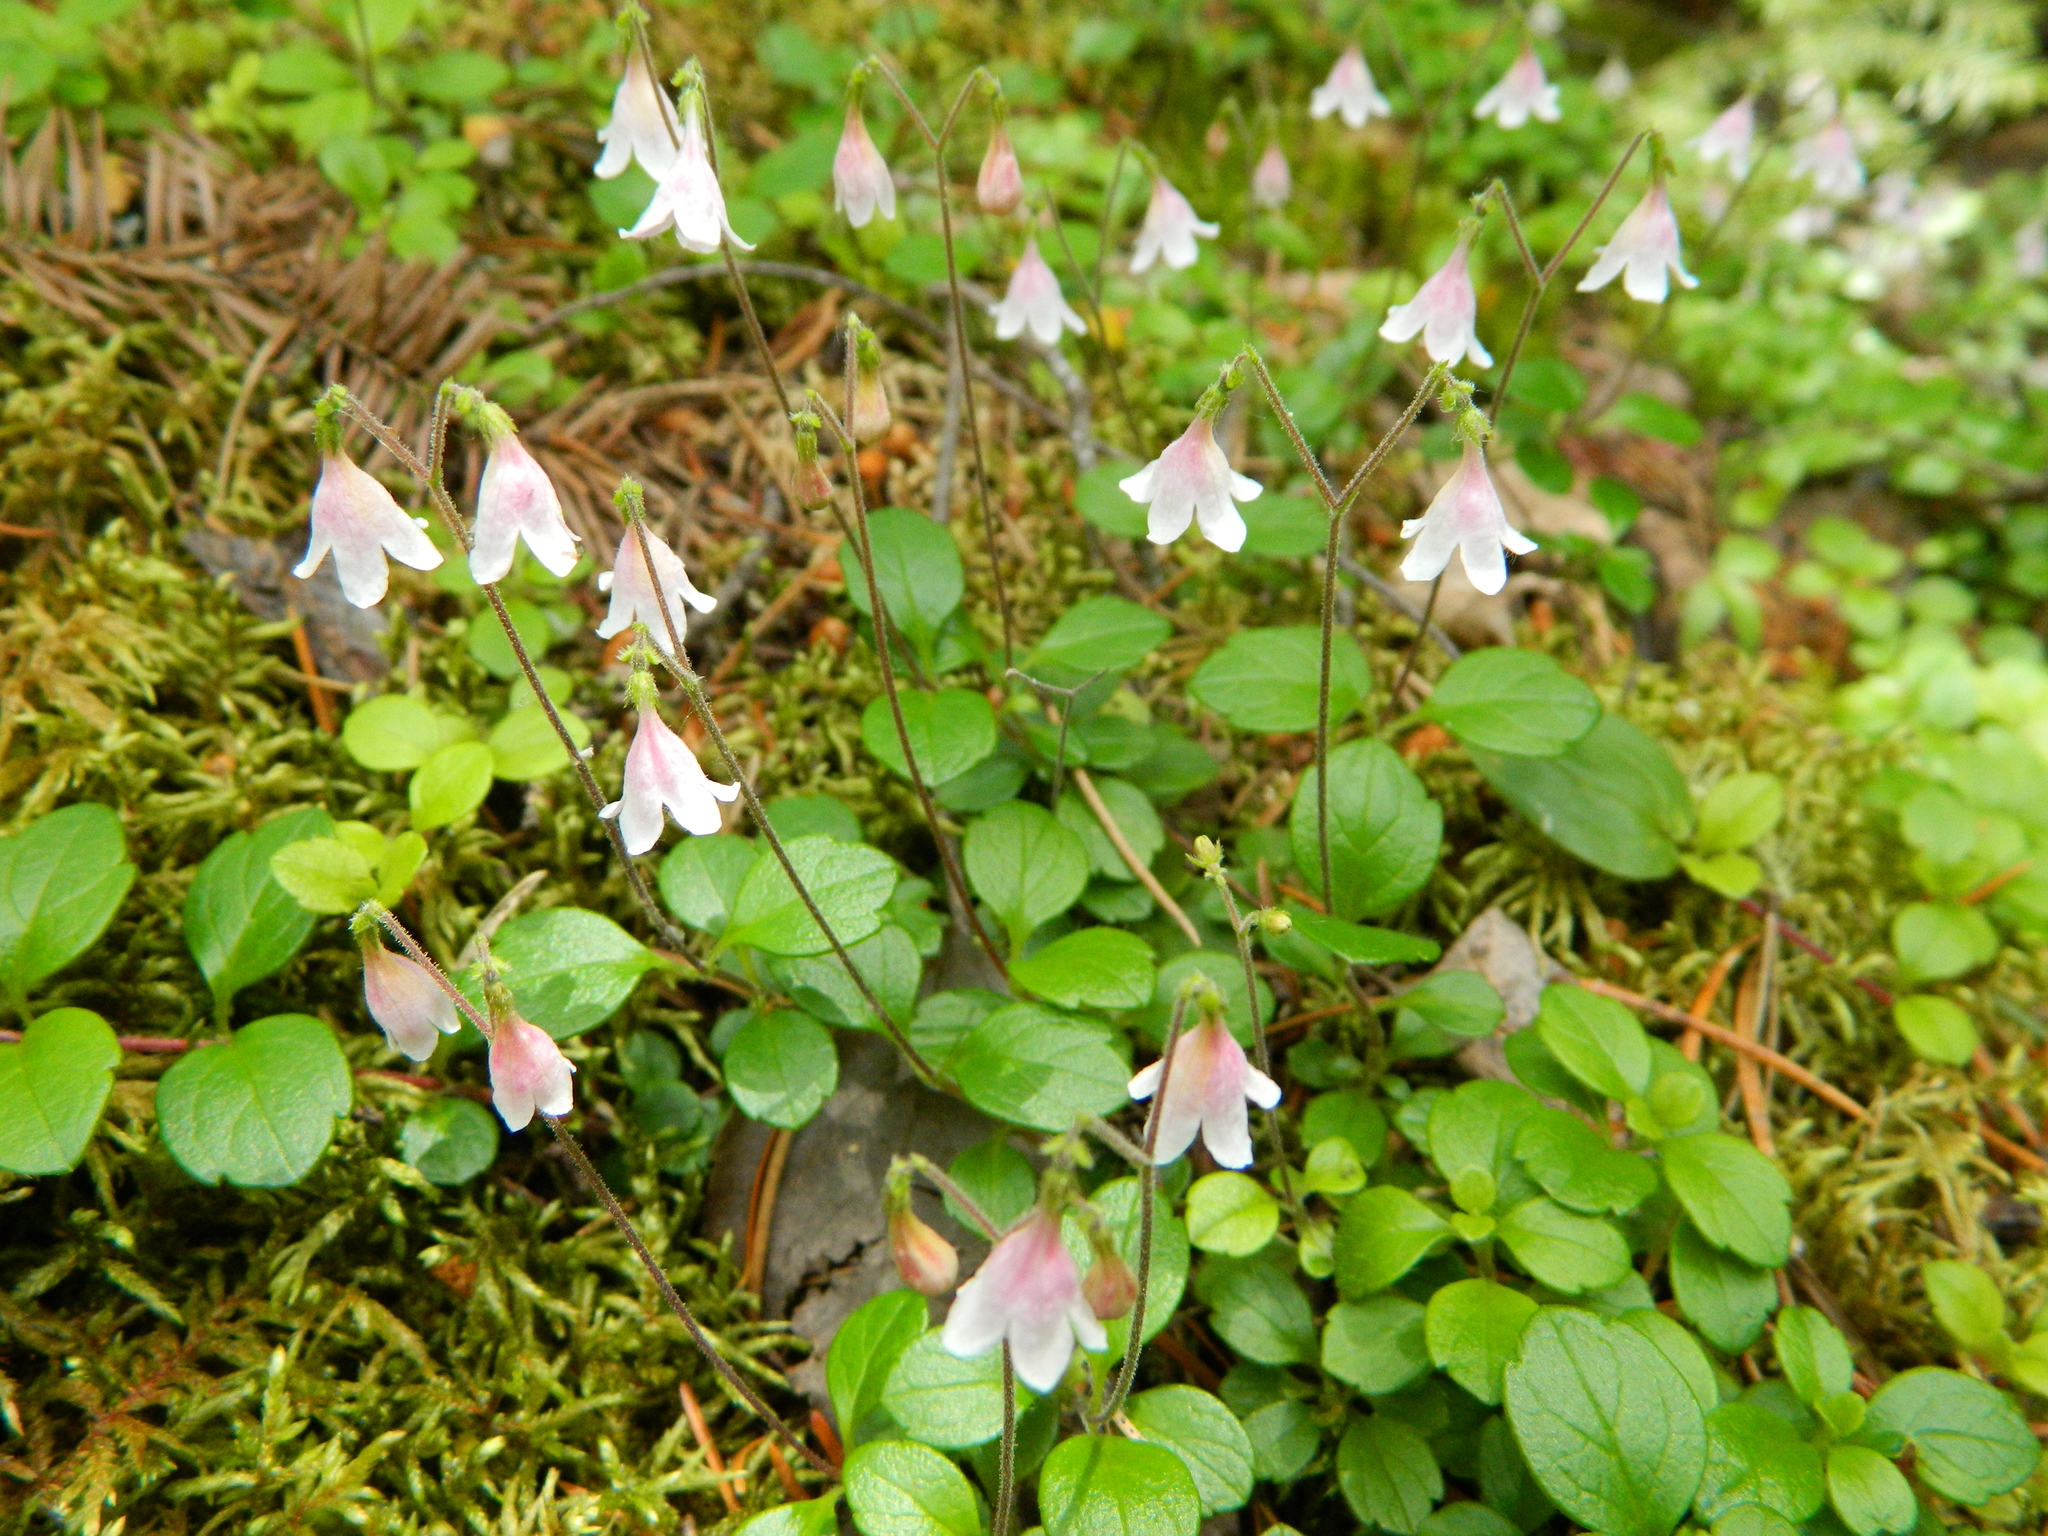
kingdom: Plantae
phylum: Tracheophyta
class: Magnoliopsida
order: Dipsacales
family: Caprifoliaceae
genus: Linnaea
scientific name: Linnaea borealis
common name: Twinflower
